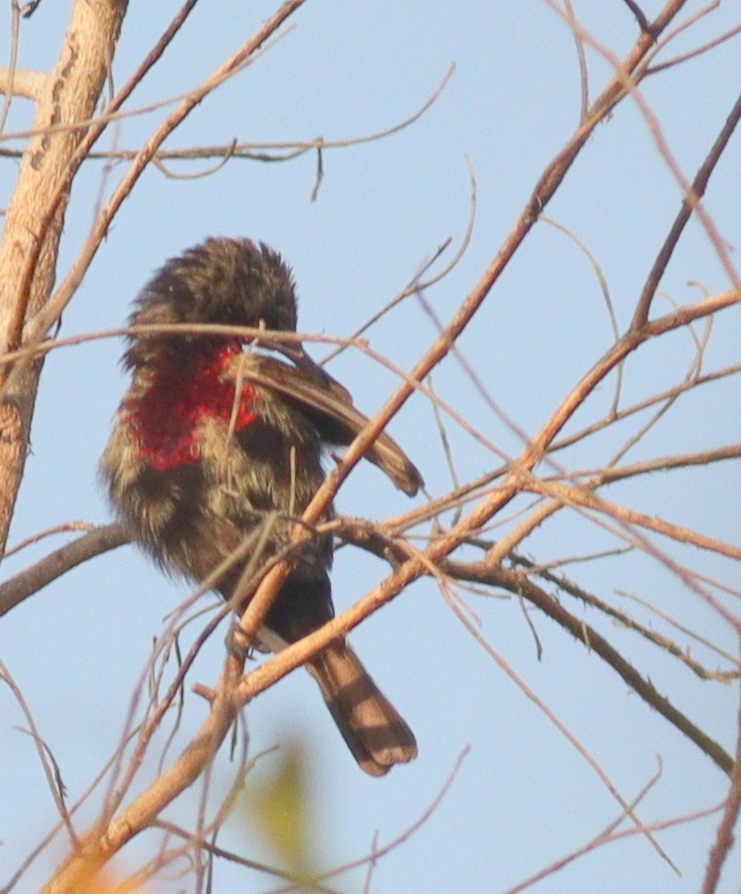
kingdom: Animalia
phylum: Chordata
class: Aves
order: Passeriformes
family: Nectariniidae
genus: Chalcomitra
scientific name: Chalcomitra senegalensis
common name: Scarlet-chested sunbird
